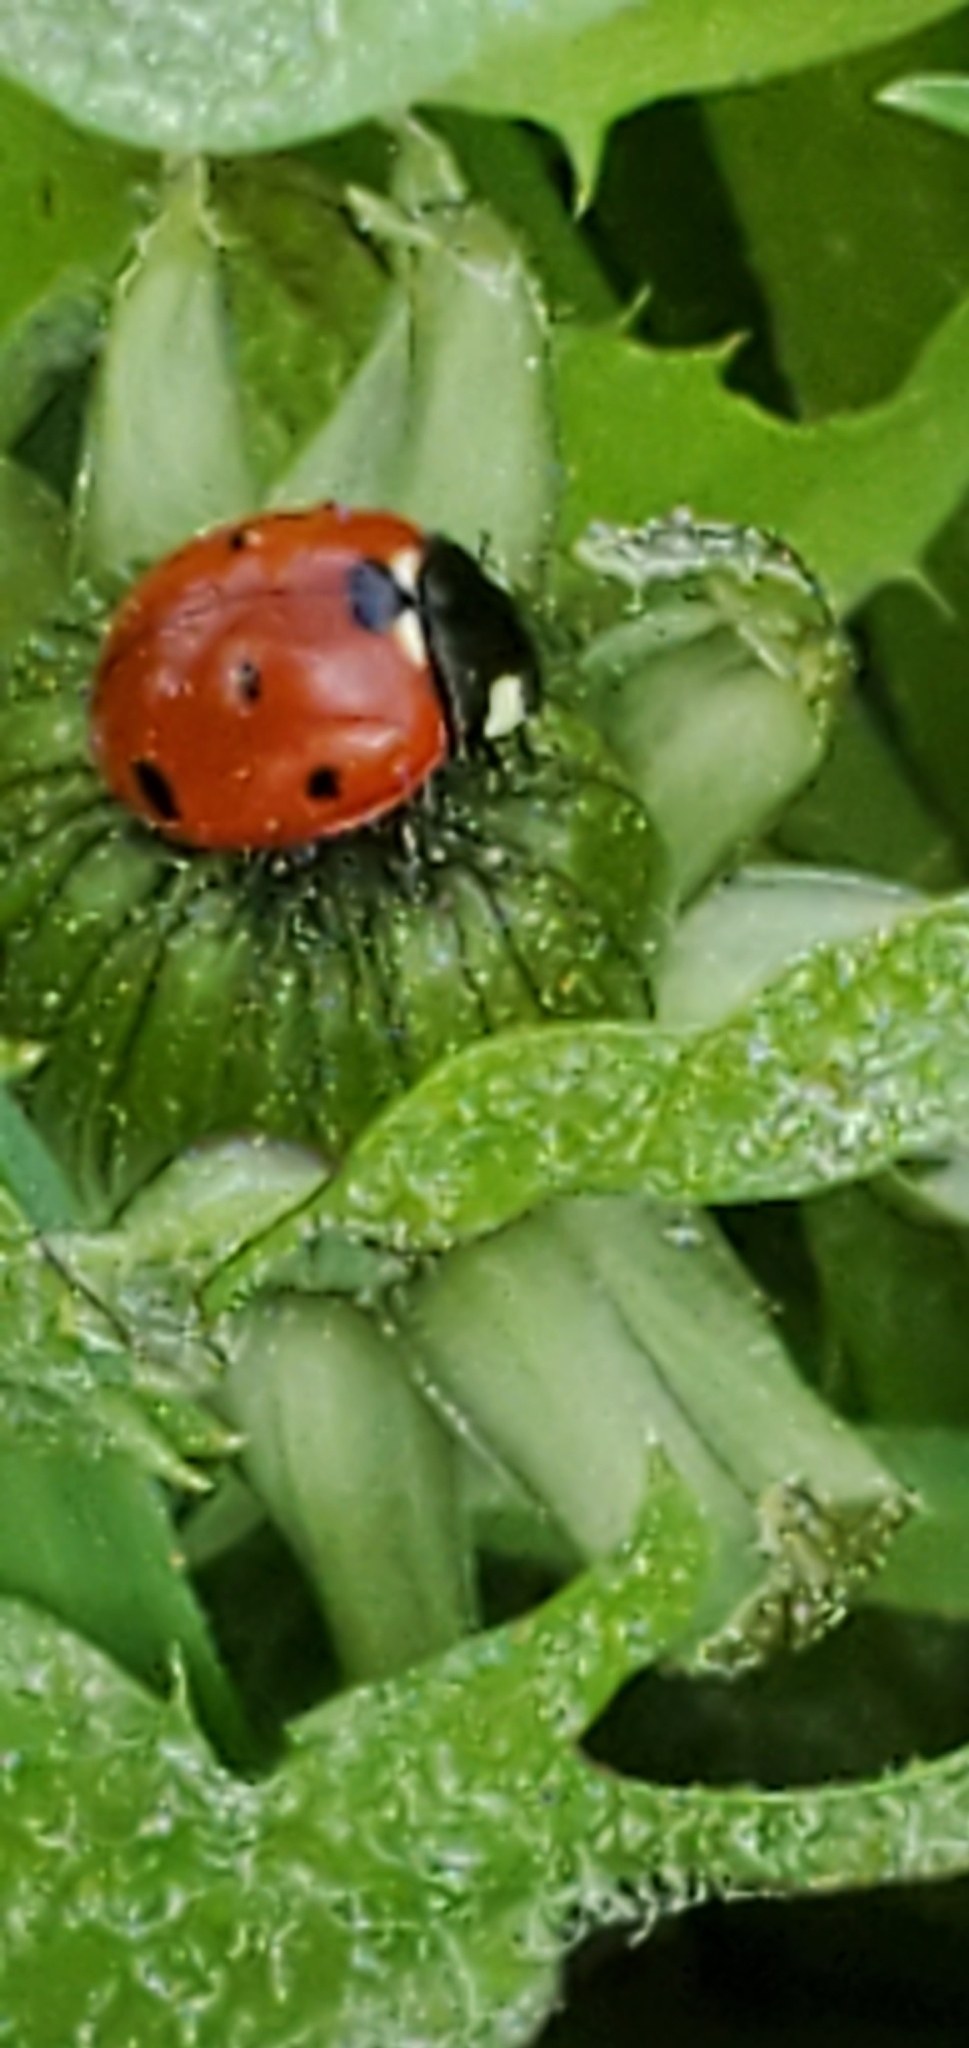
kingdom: Animalia
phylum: Arthropoda
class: Insecta
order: Coleoptera
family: Coccinellidae
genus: Coccinella
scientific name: Coccinella septempunctata
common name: Sevenspotted lady beetle
